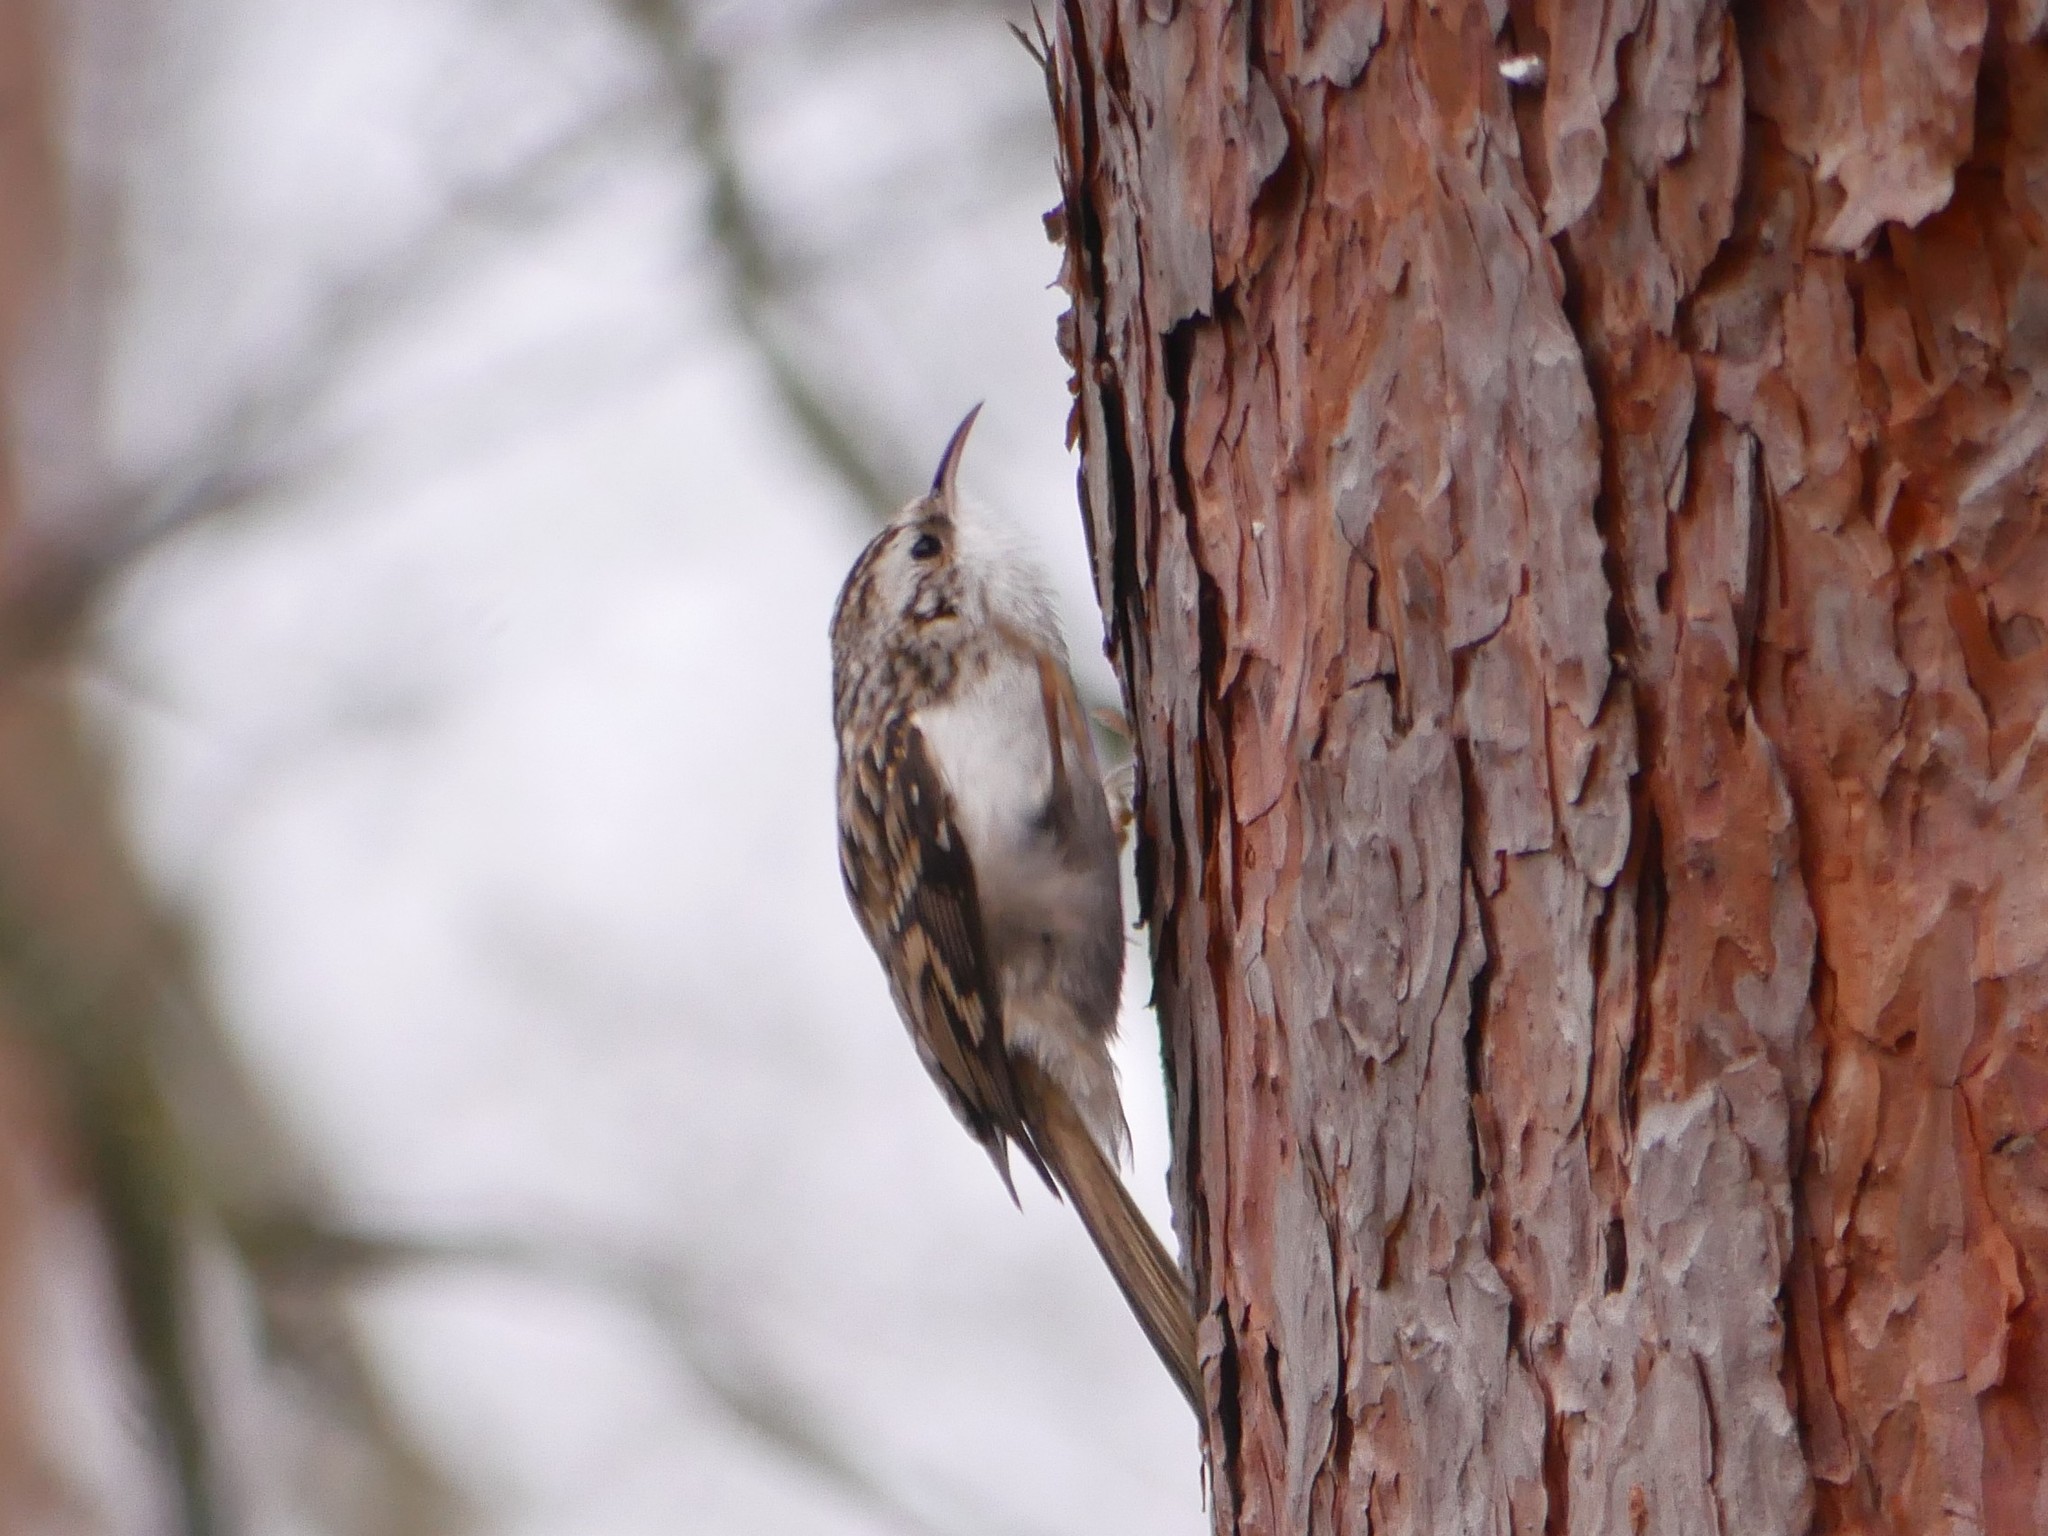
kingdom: Animalia
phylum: Chordata
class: Aves
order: Passeriformes
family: Certhiidae
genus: Certhia
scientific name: Certhia familiaris
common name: Eurasian treecreeper
